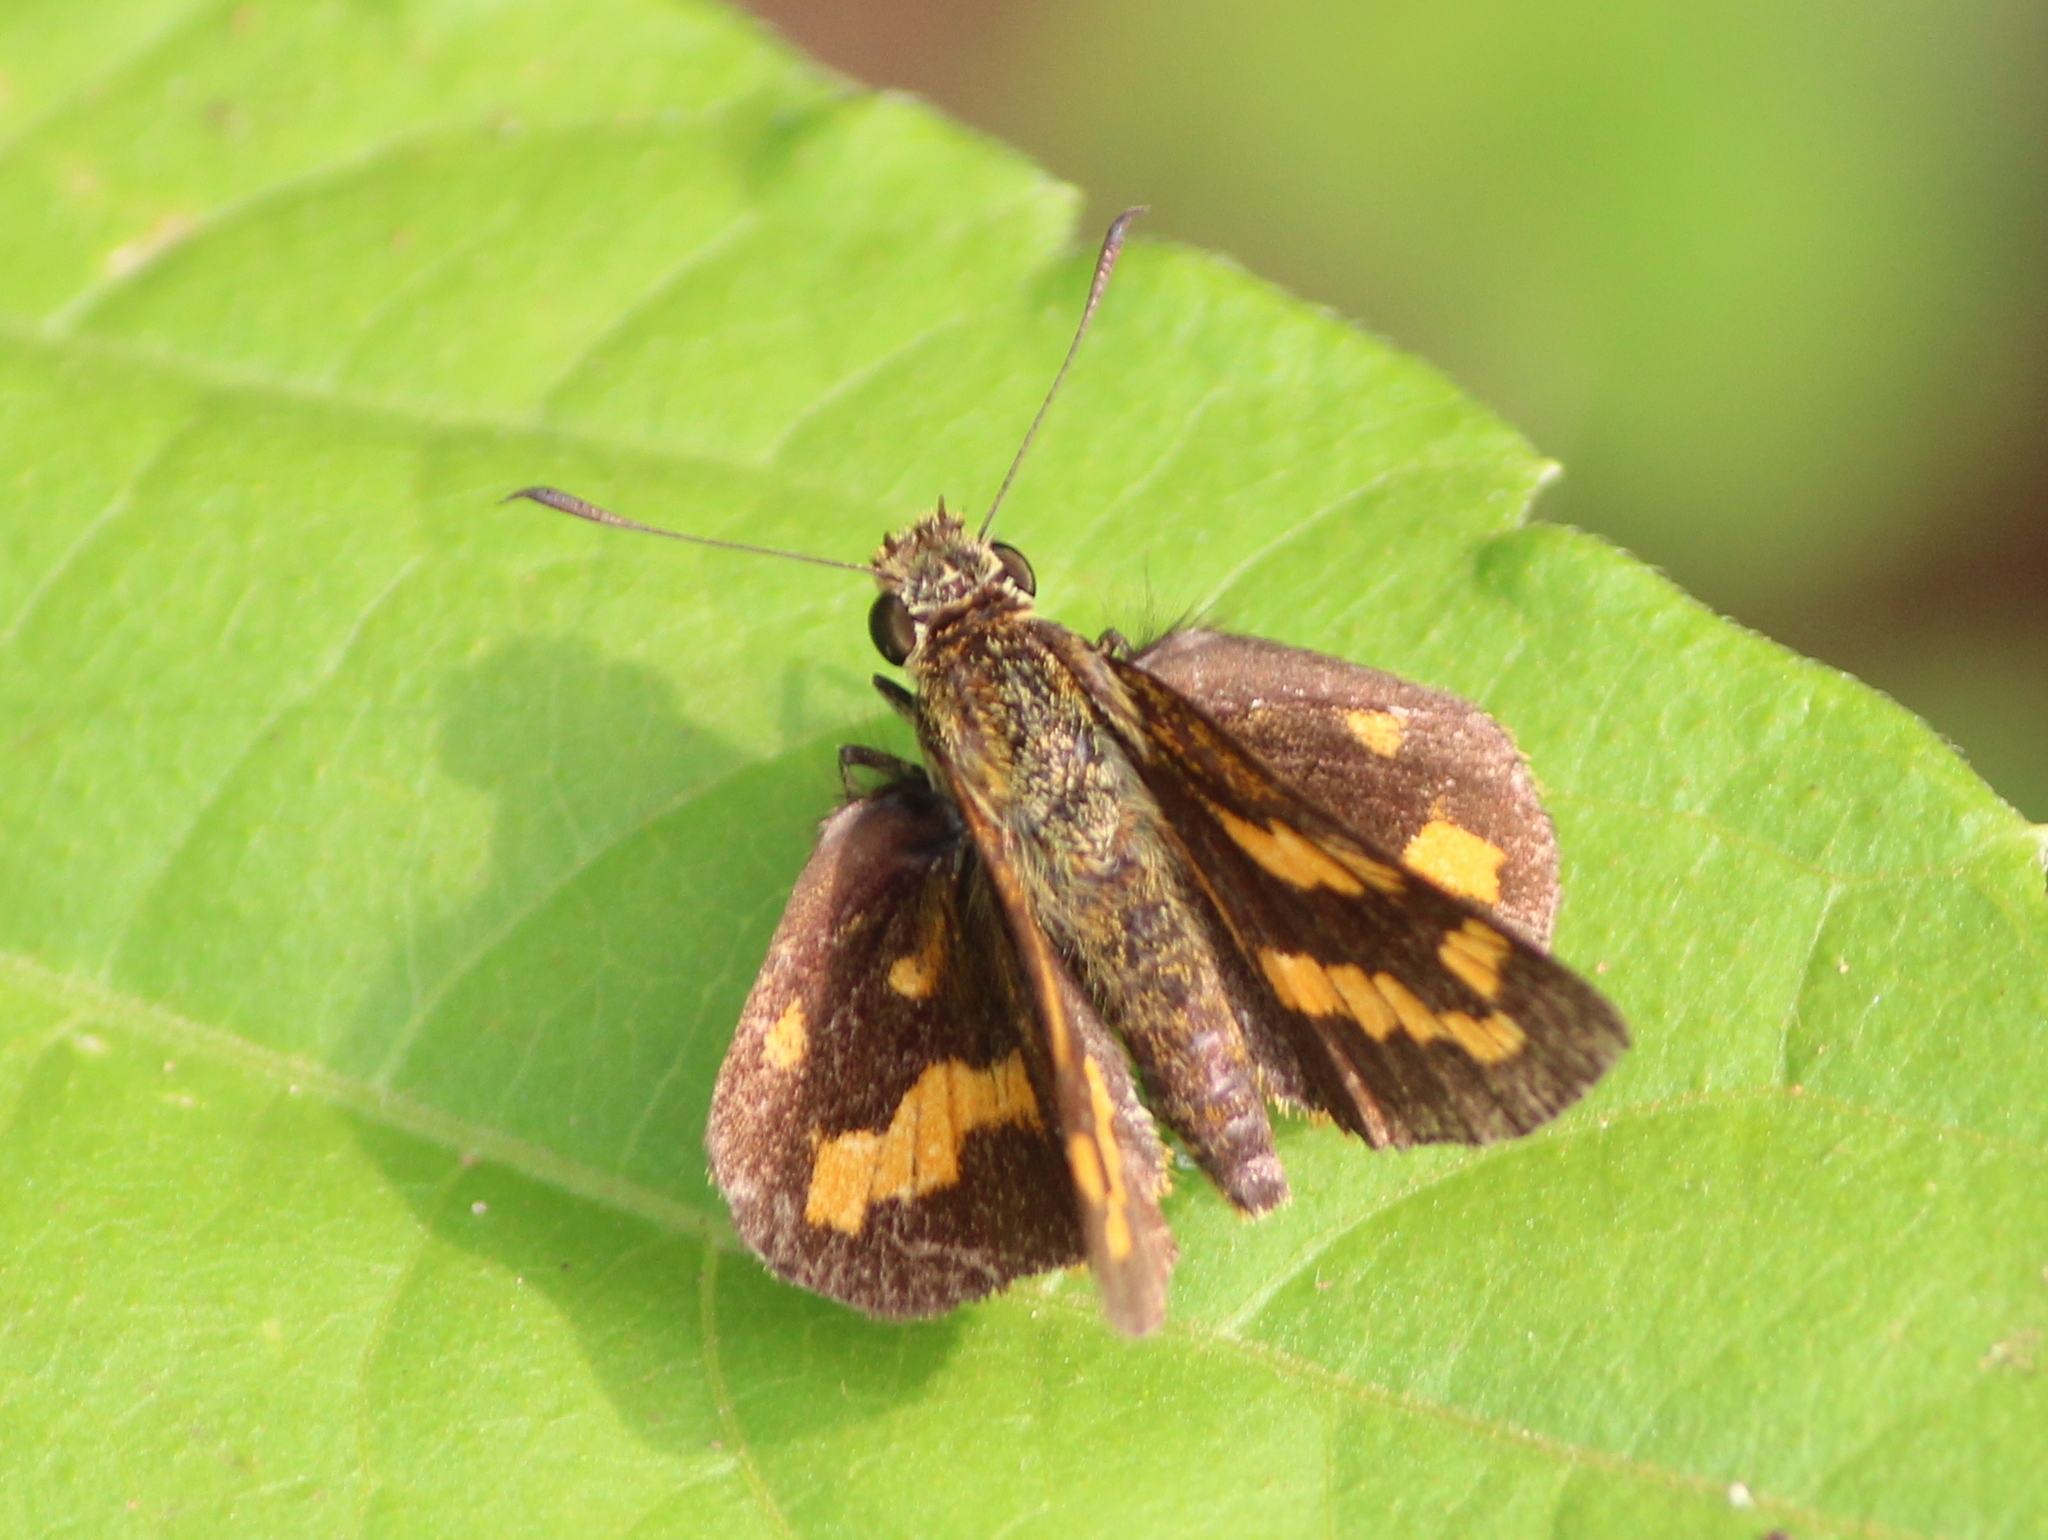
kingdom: Animalia
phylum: Arthropoda
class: Insecta
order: Lepidoptera
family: Hesperiidae
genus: Potanthus
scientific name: Potanthus palnia
